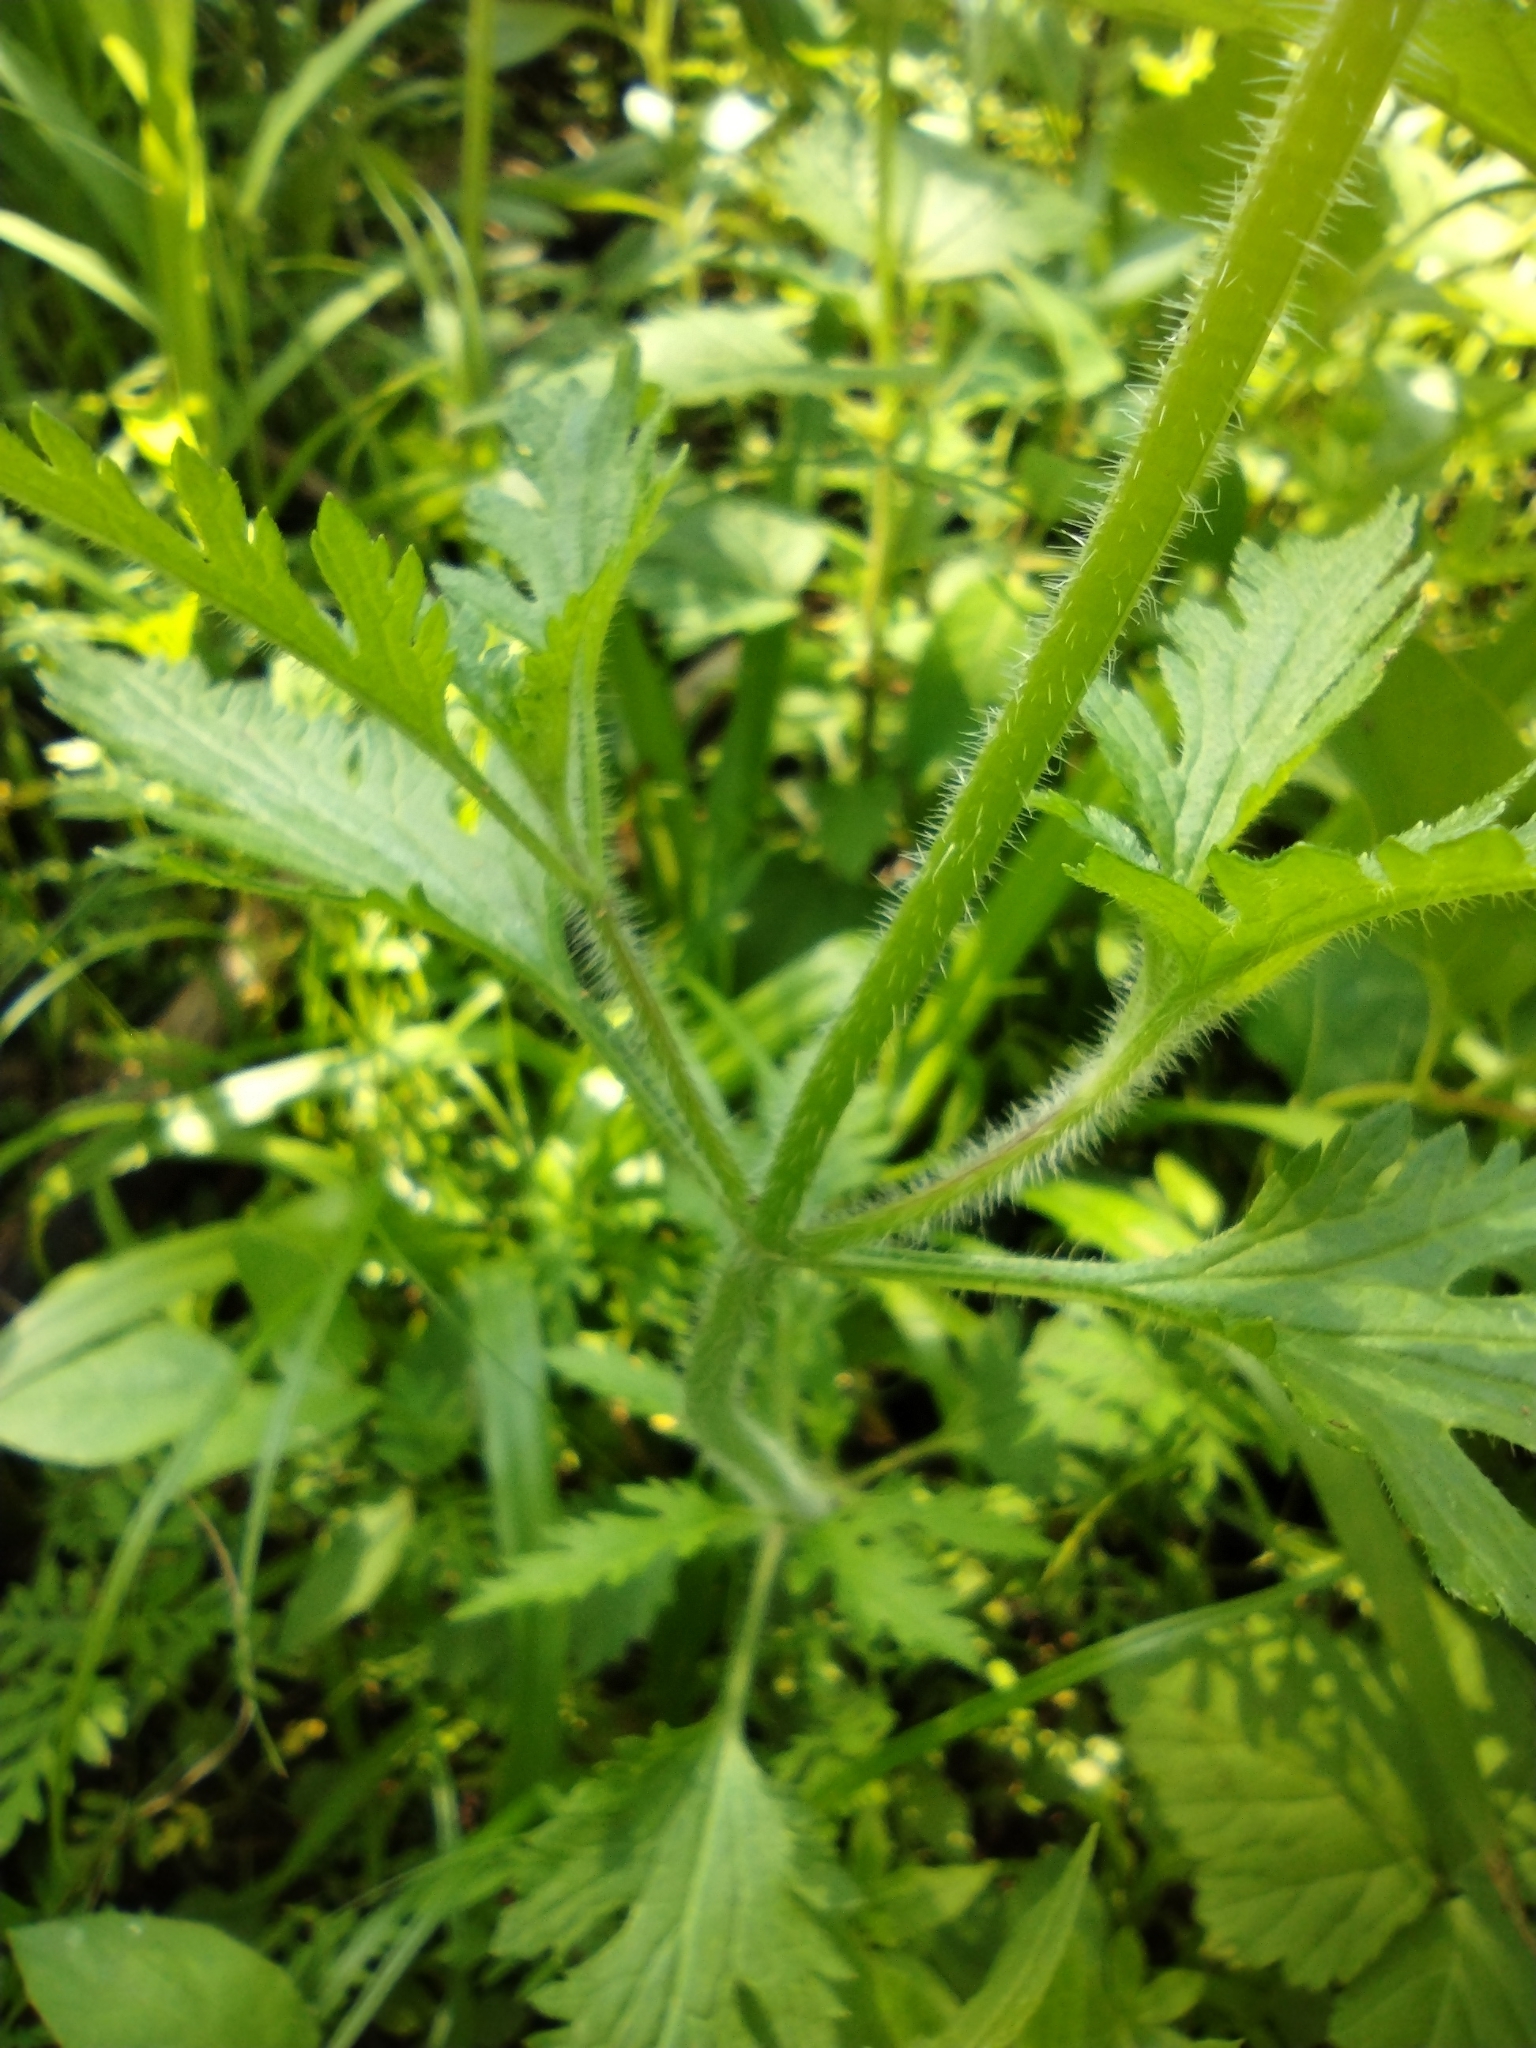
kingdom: Plantae
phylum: Tracheophyta
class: Magnoliopsida
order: Lamiales
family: Verbenaceae
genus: Verbena
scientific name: Verbena canadensis
